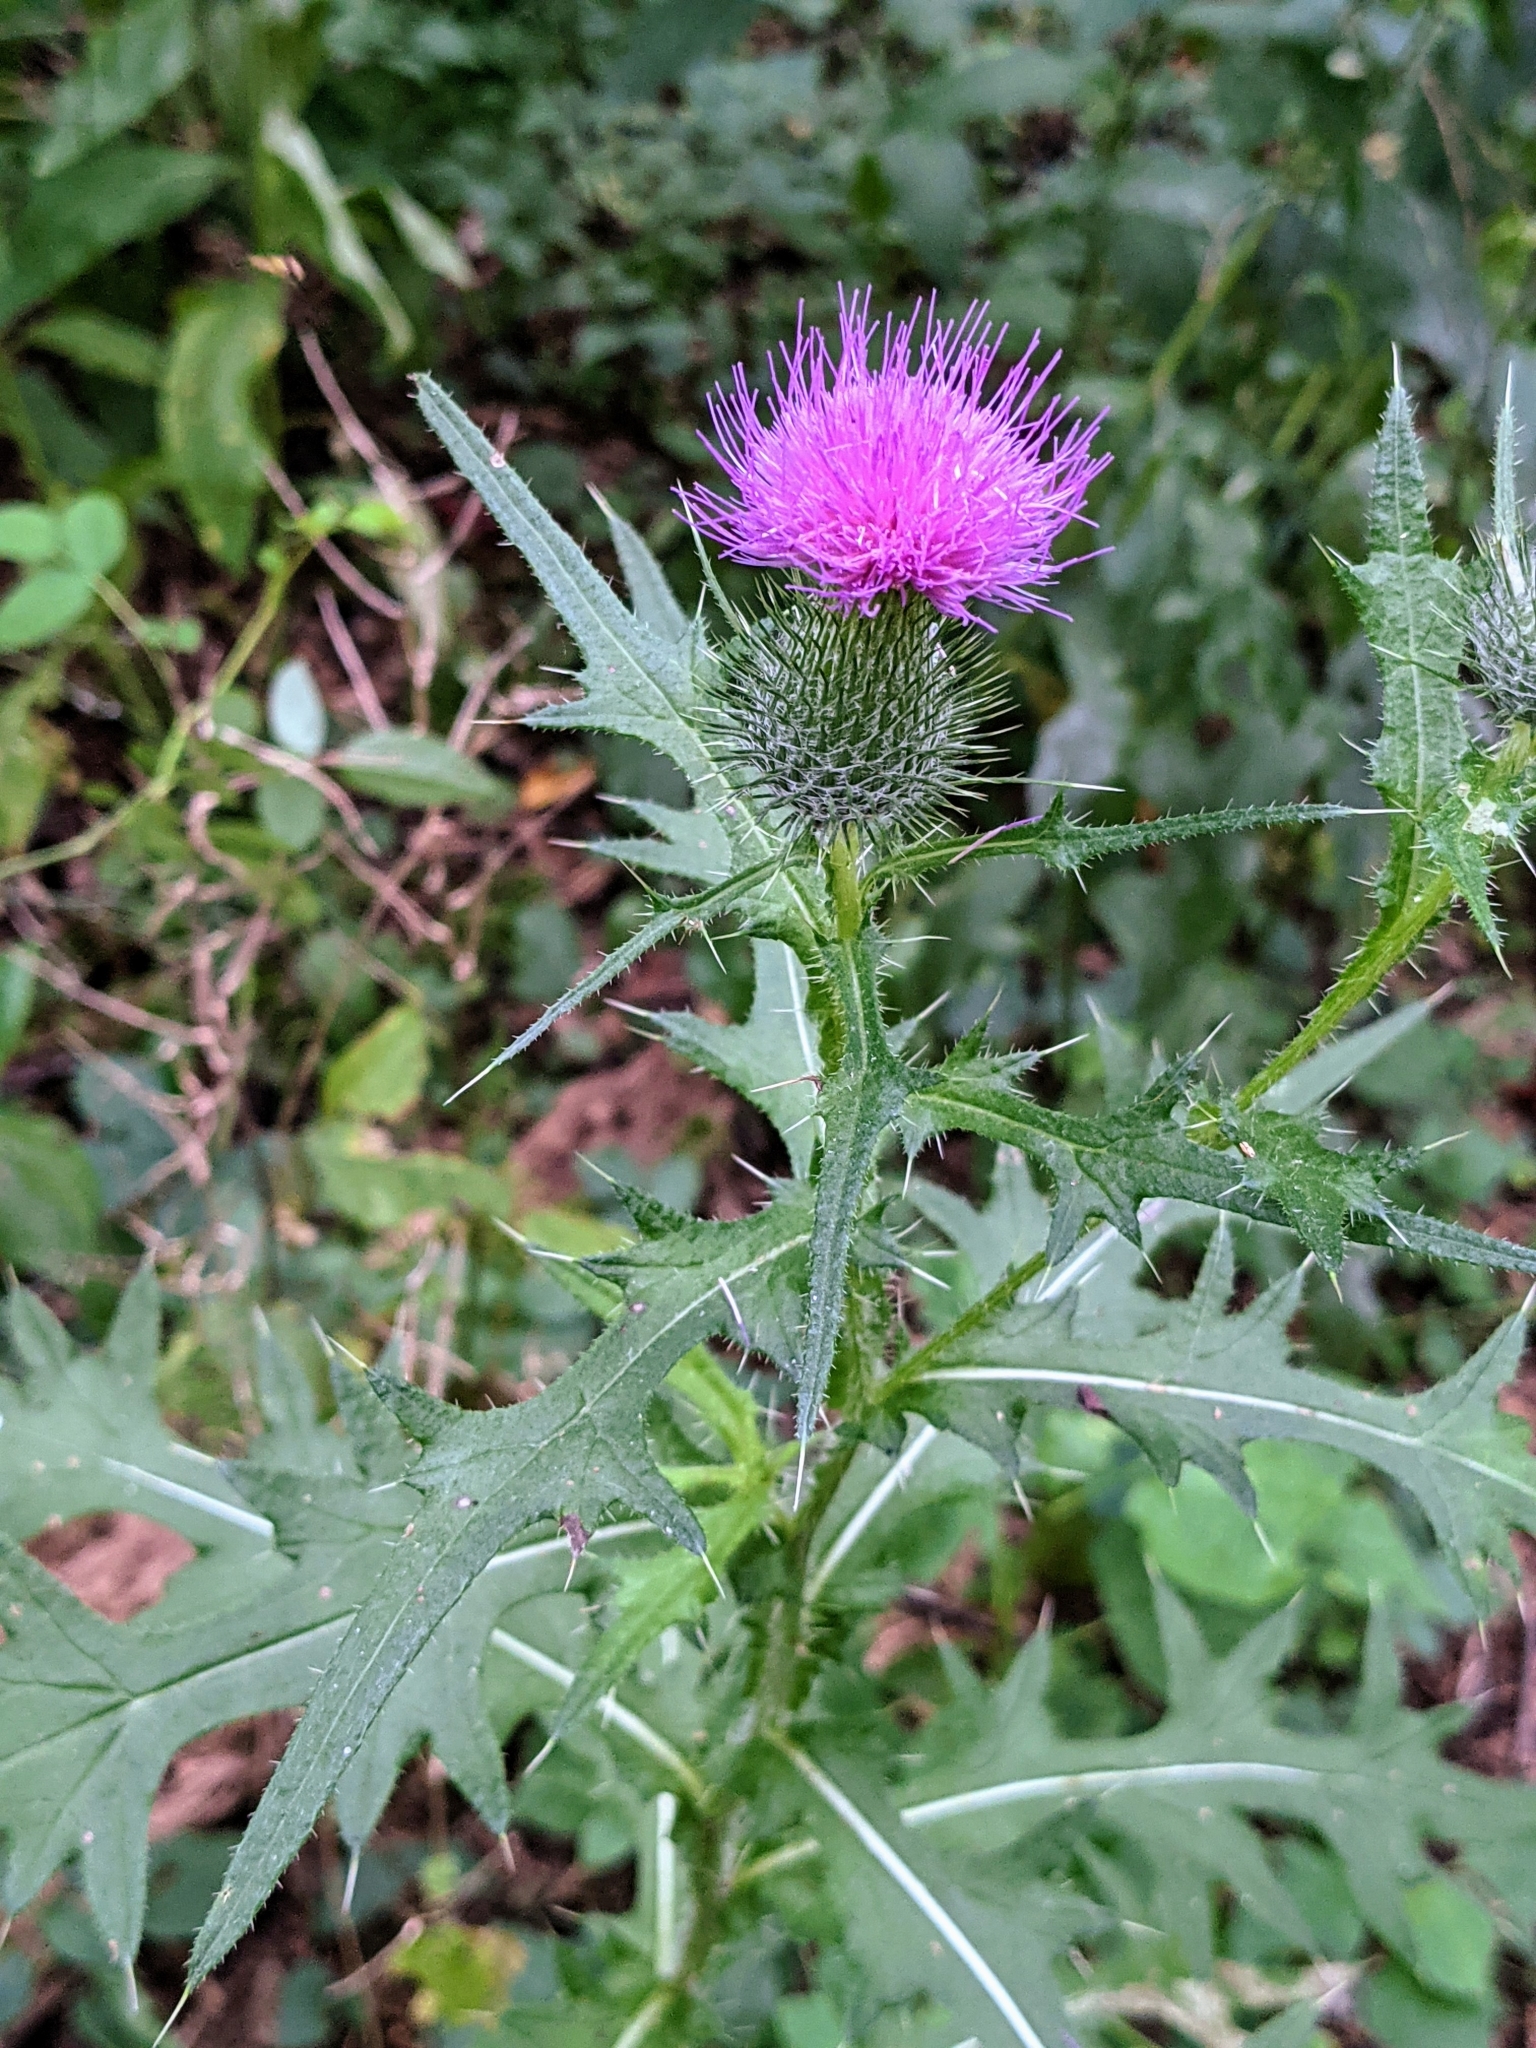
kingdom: Plantae
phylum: Tracheophyta
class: Magnoliopsida
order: Asterales
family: Asteraceae
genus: Cirsium
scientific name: Cirsium vulgare
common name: Bull thistle
